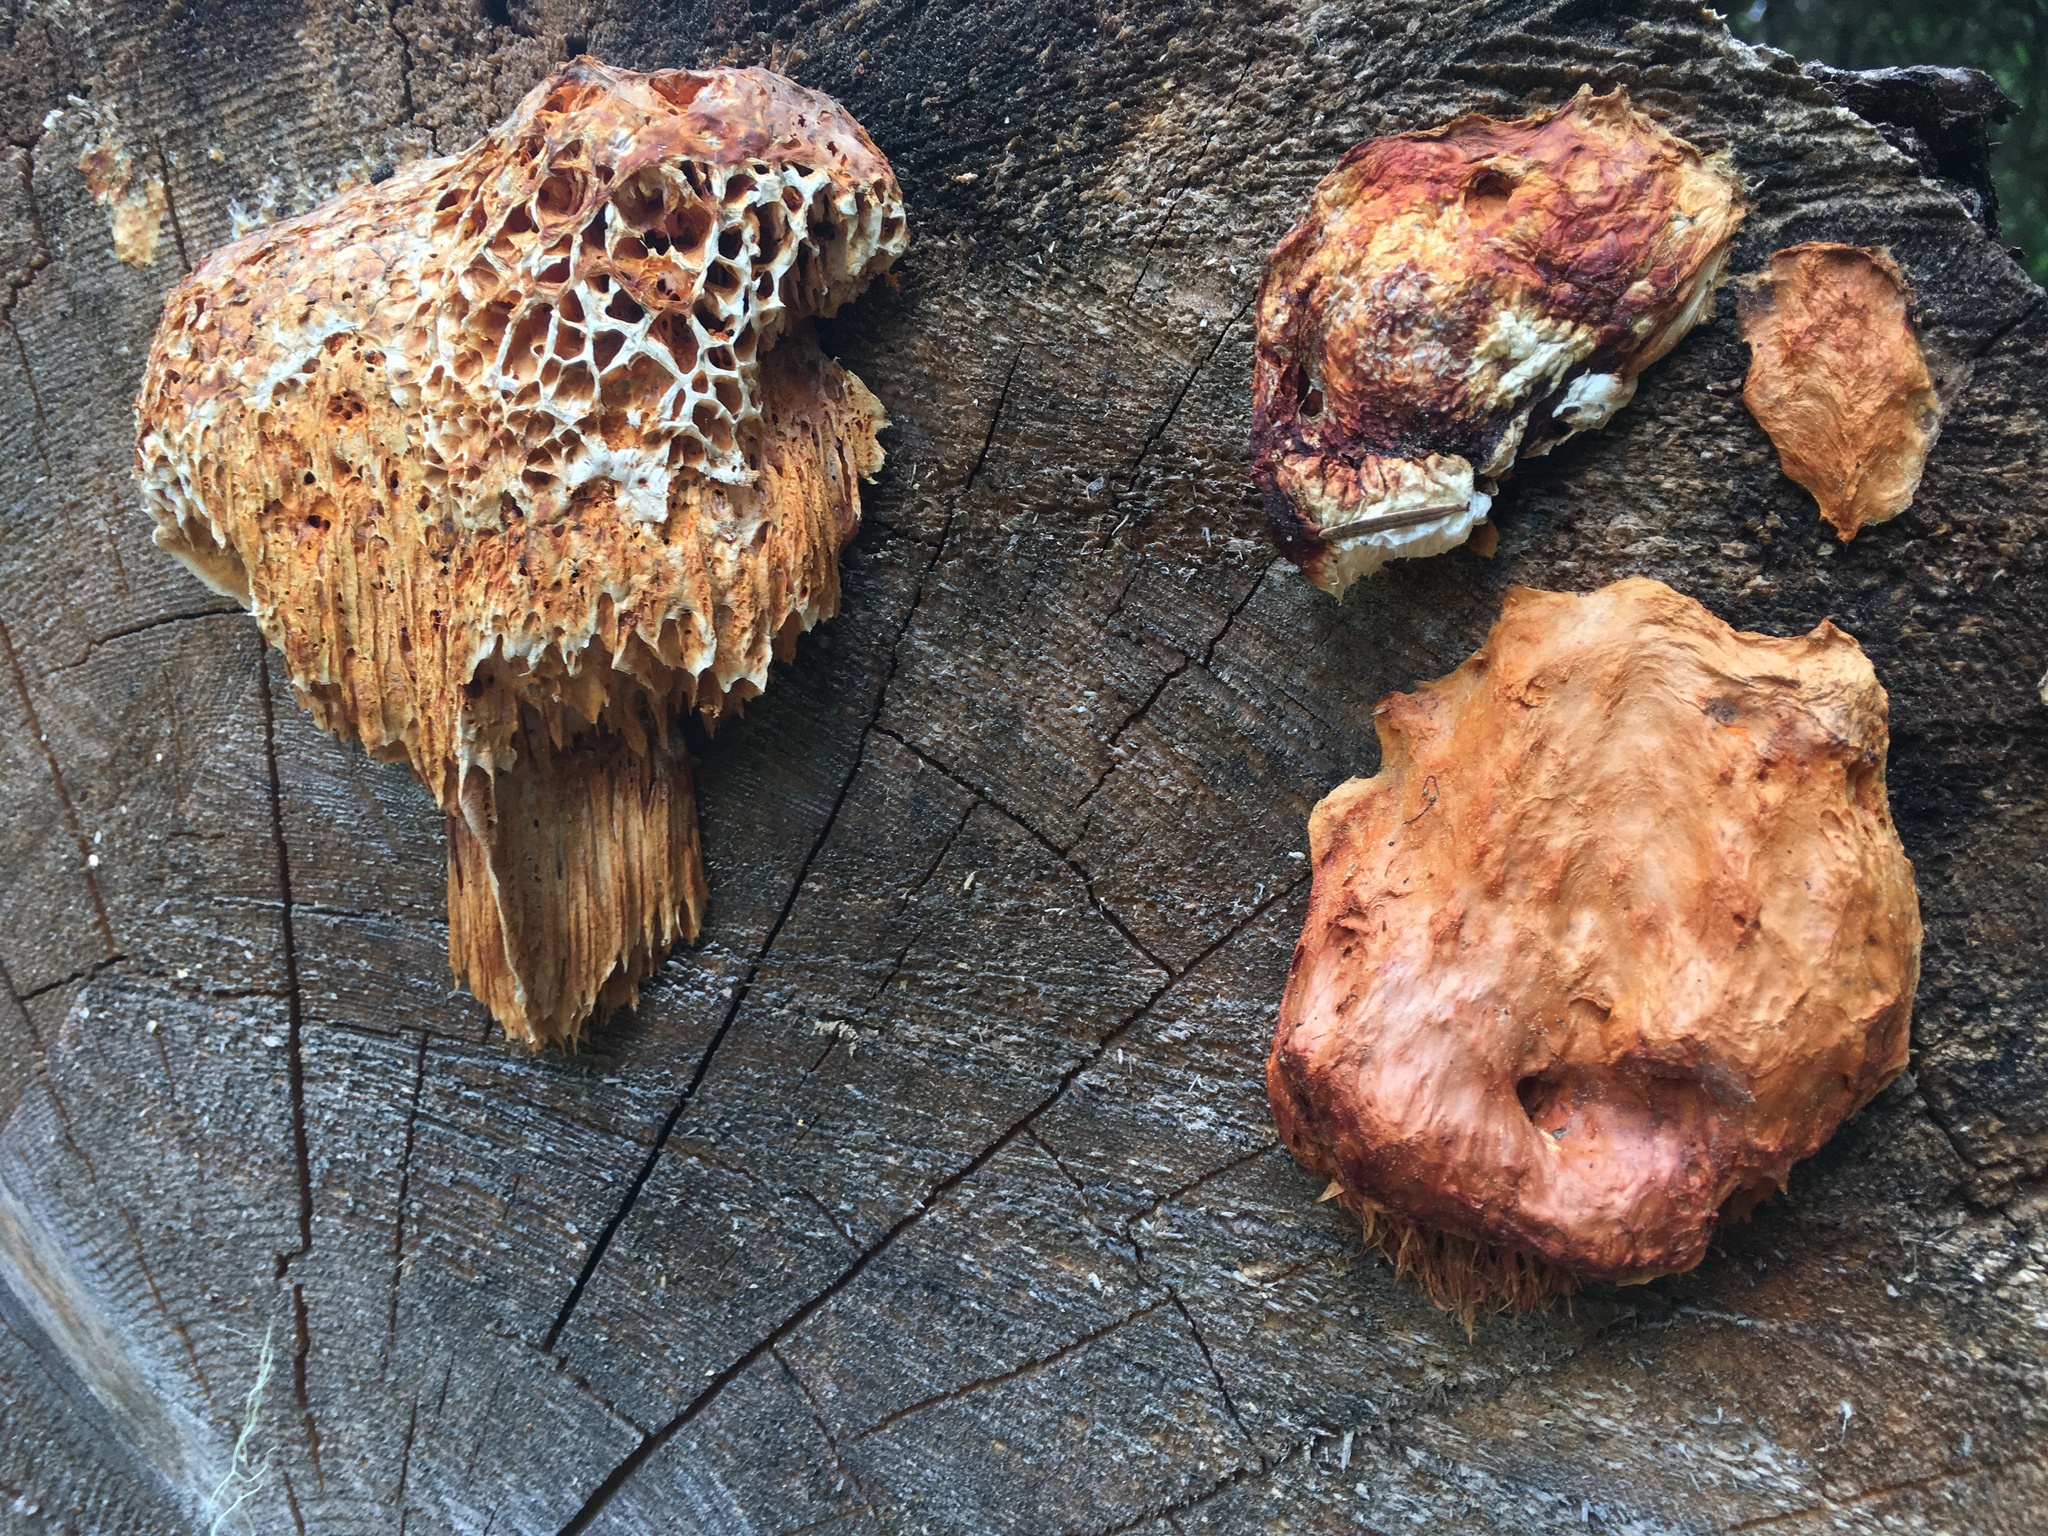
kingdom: Fungi
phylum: Basidiomycota
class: Agaricomycetes
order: Polyporales
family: Pycnoporellaceae
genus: Pycnoporellus
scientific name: Pycnoporellus alboluteus
